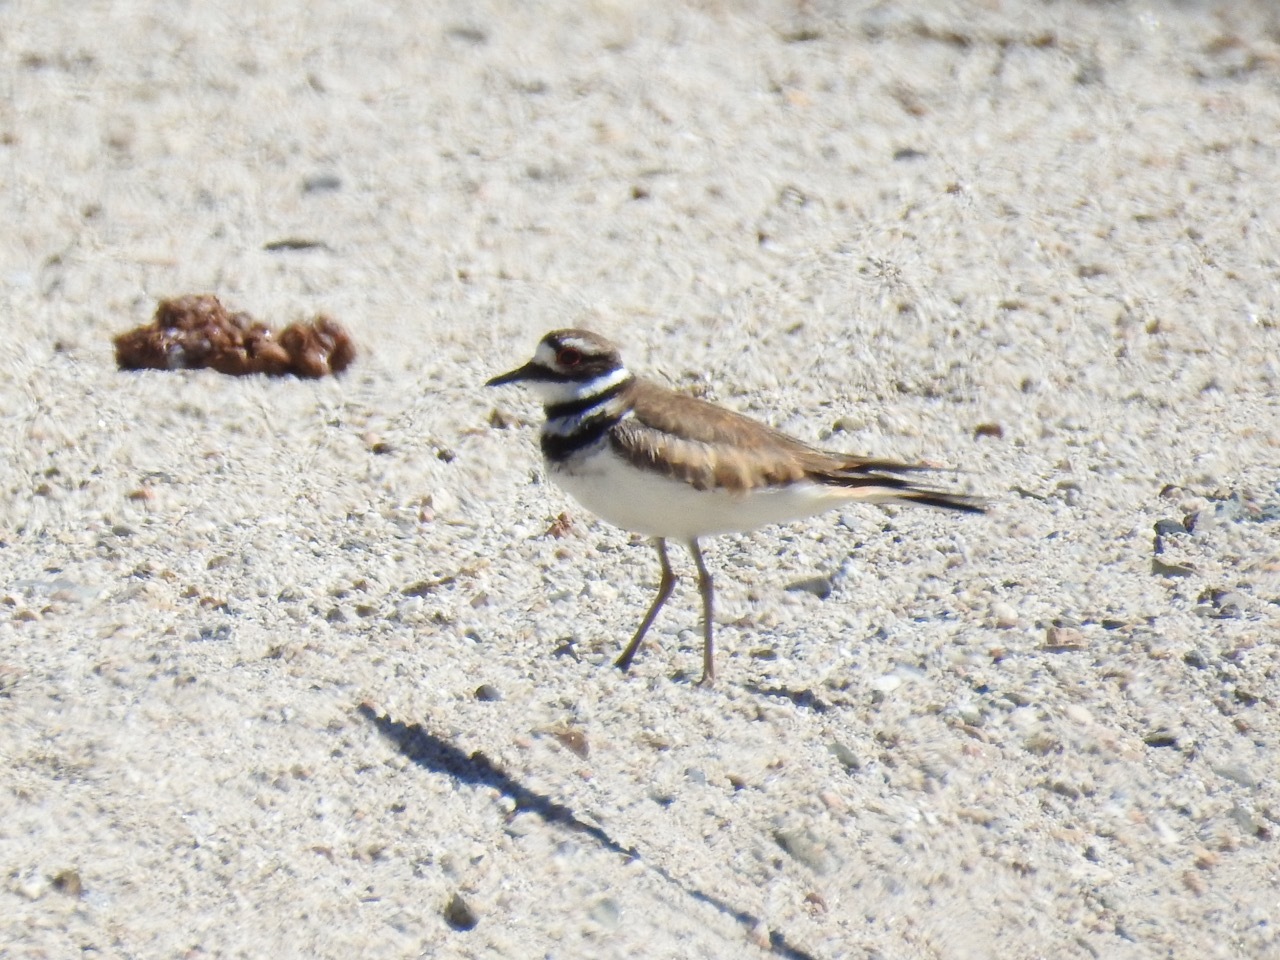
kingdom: Animalia
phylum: Chordata
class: Aves
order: Charadriiformes
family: Charadriidae
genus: Charadrius
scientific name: Charadrius vociferus
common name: Killdeer
